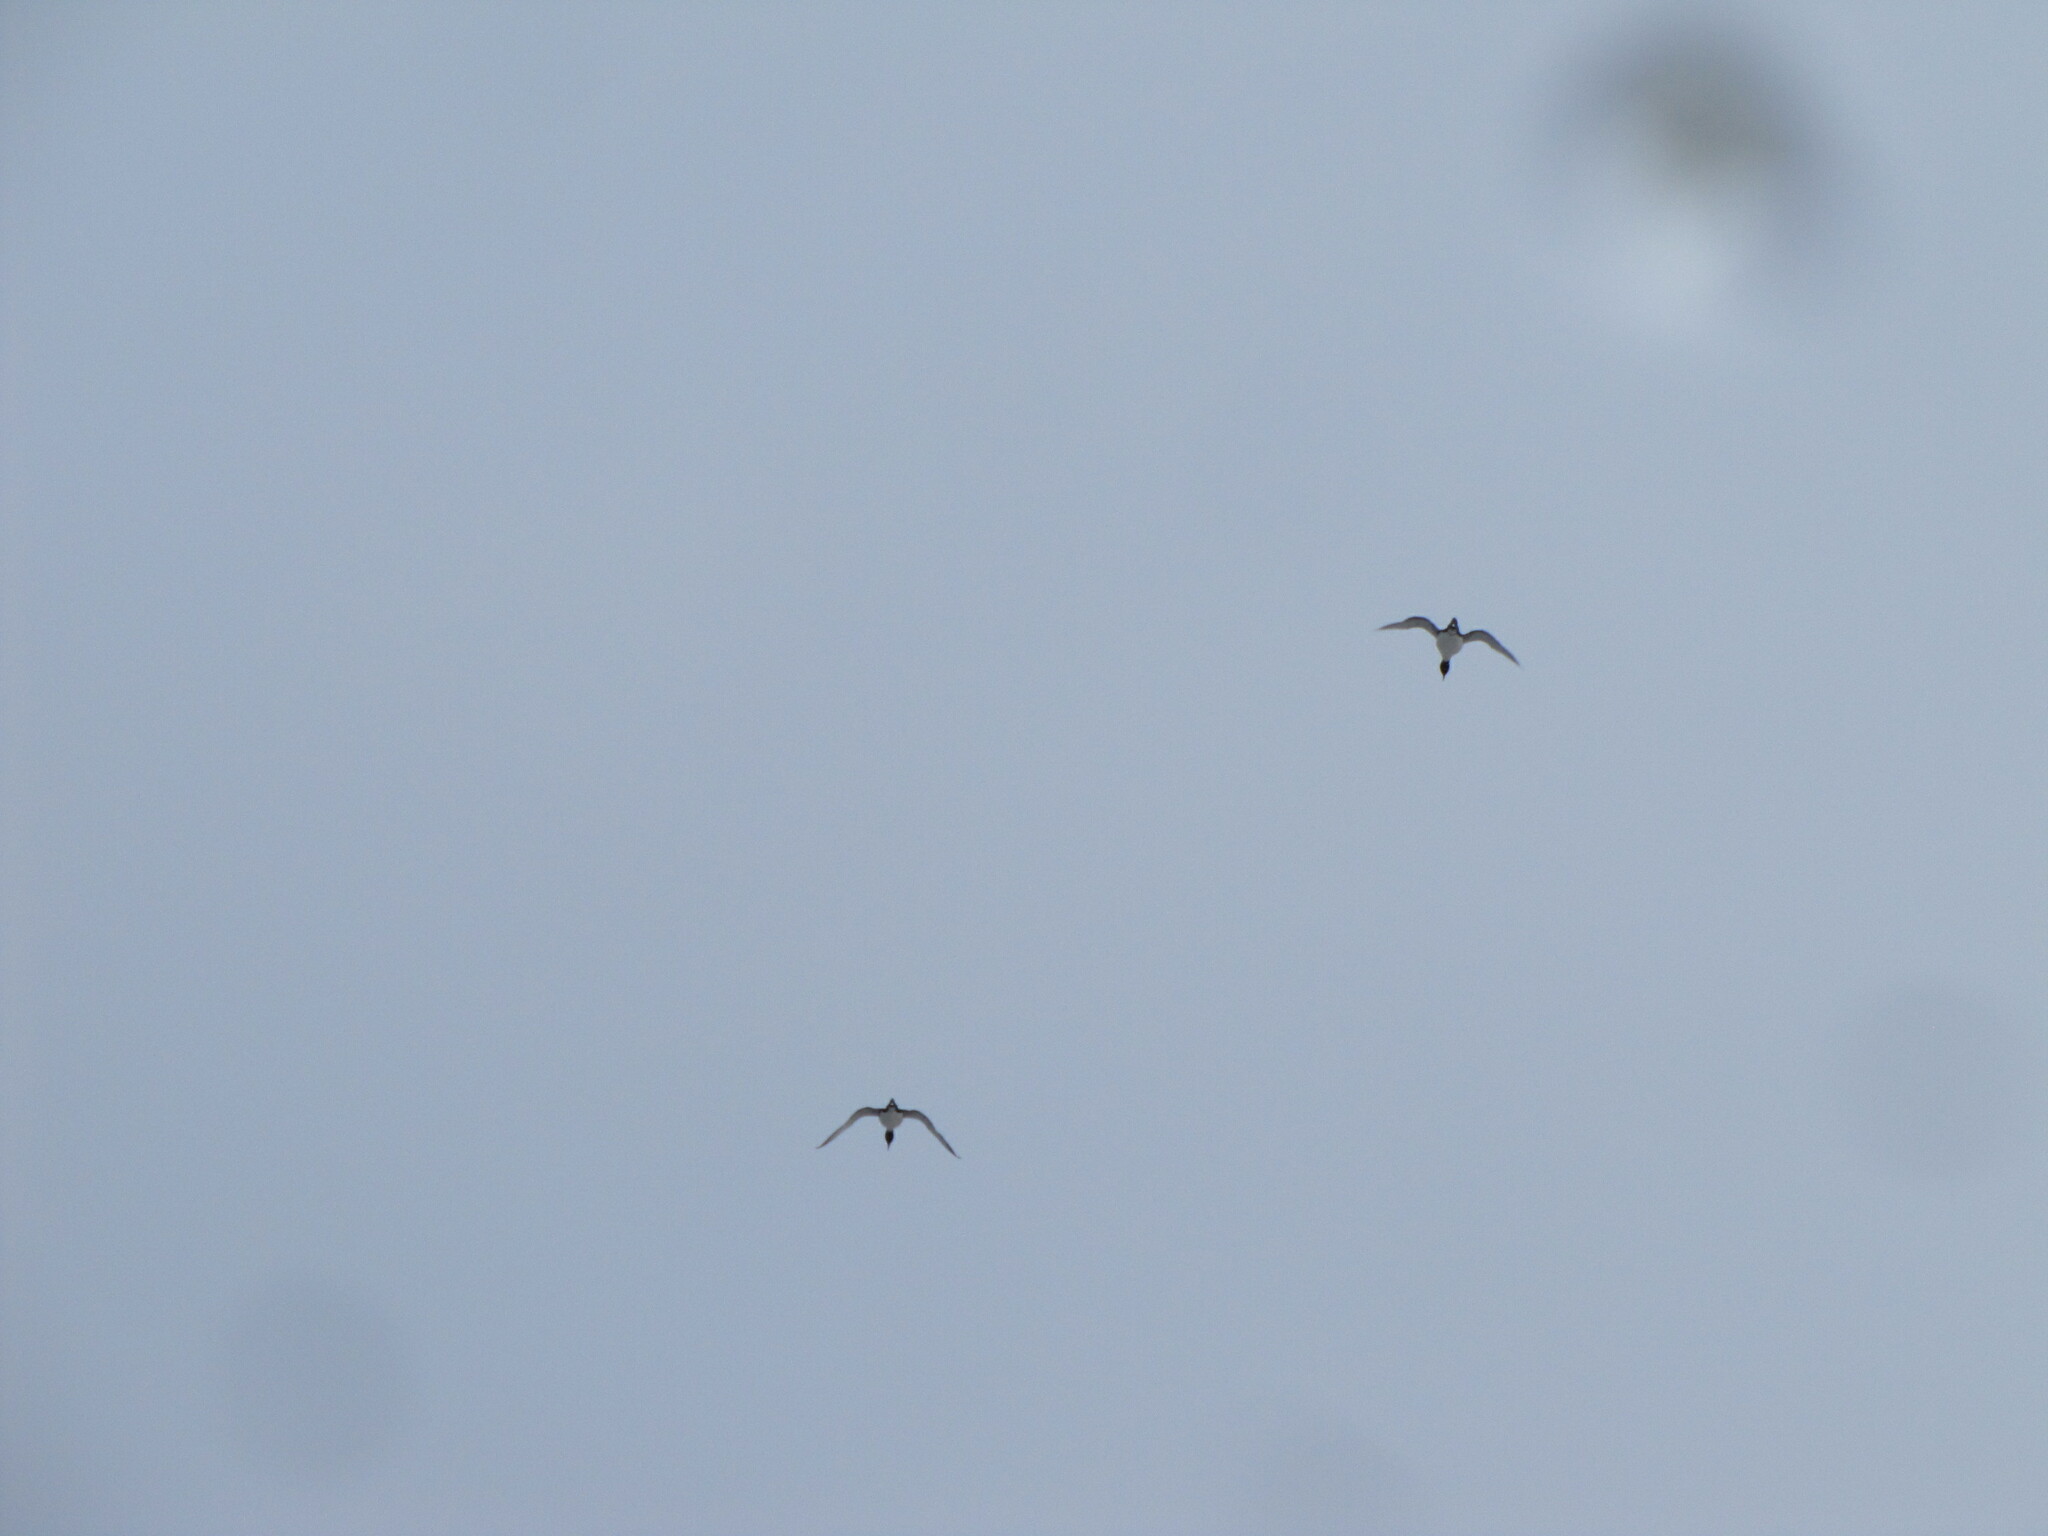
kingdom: Animalia
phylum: Chordata
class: Aves
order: Gaviiformes
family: Gaviidae
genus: Gavia
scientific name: Gavia immer
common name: Common loon
